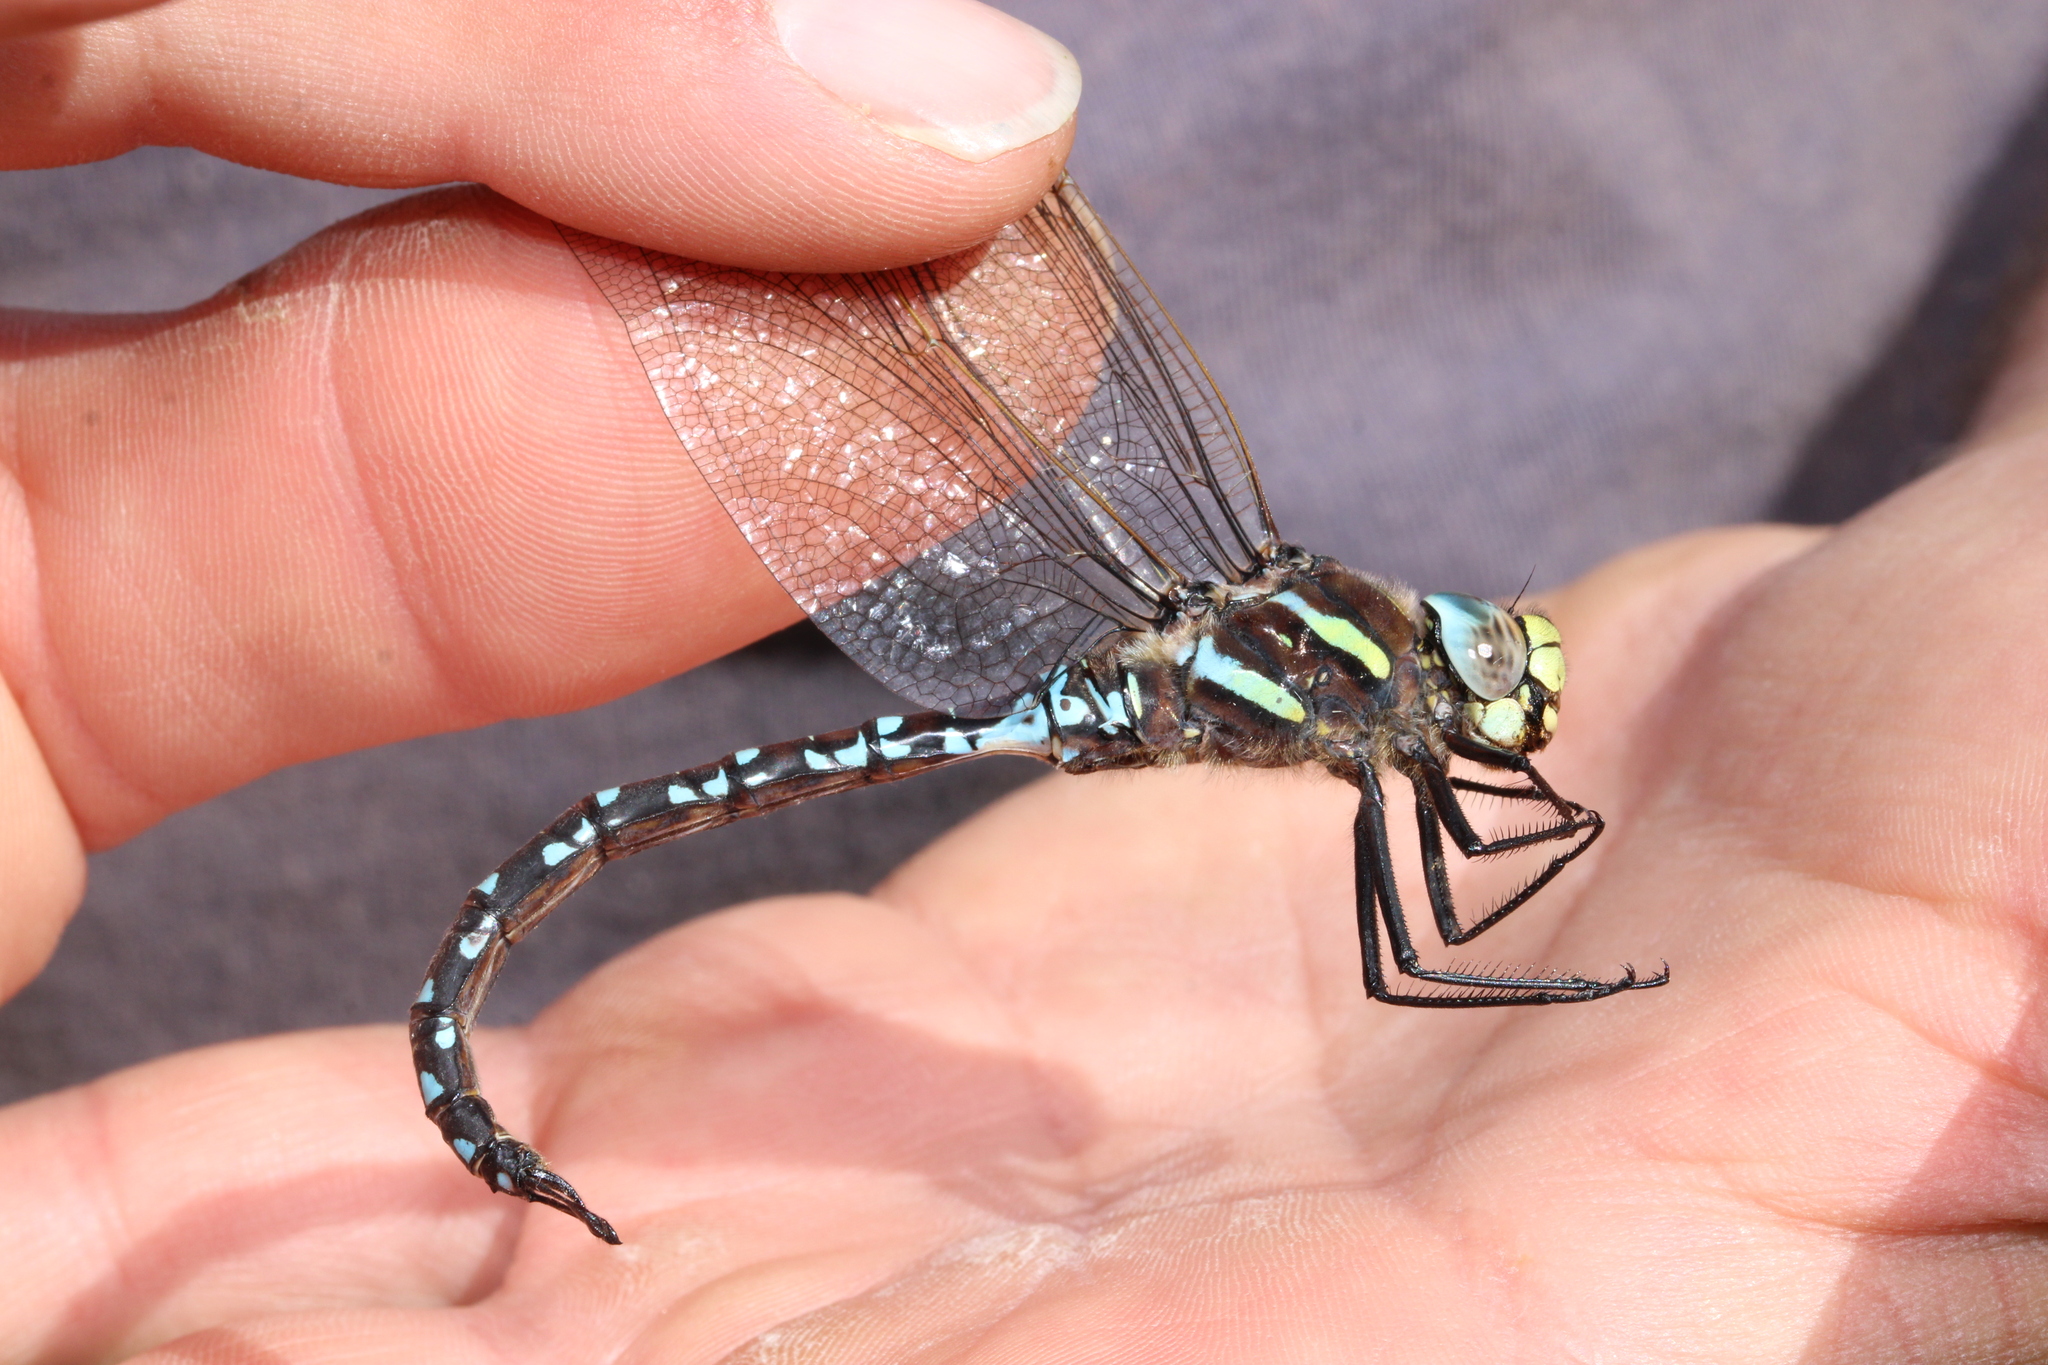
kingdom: Animalia
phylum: Arthropoda
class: Insecta
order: Odonata
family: Aeshnidae
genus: Aeshna
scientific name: Aeshna juncea
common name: Moorland hawker
